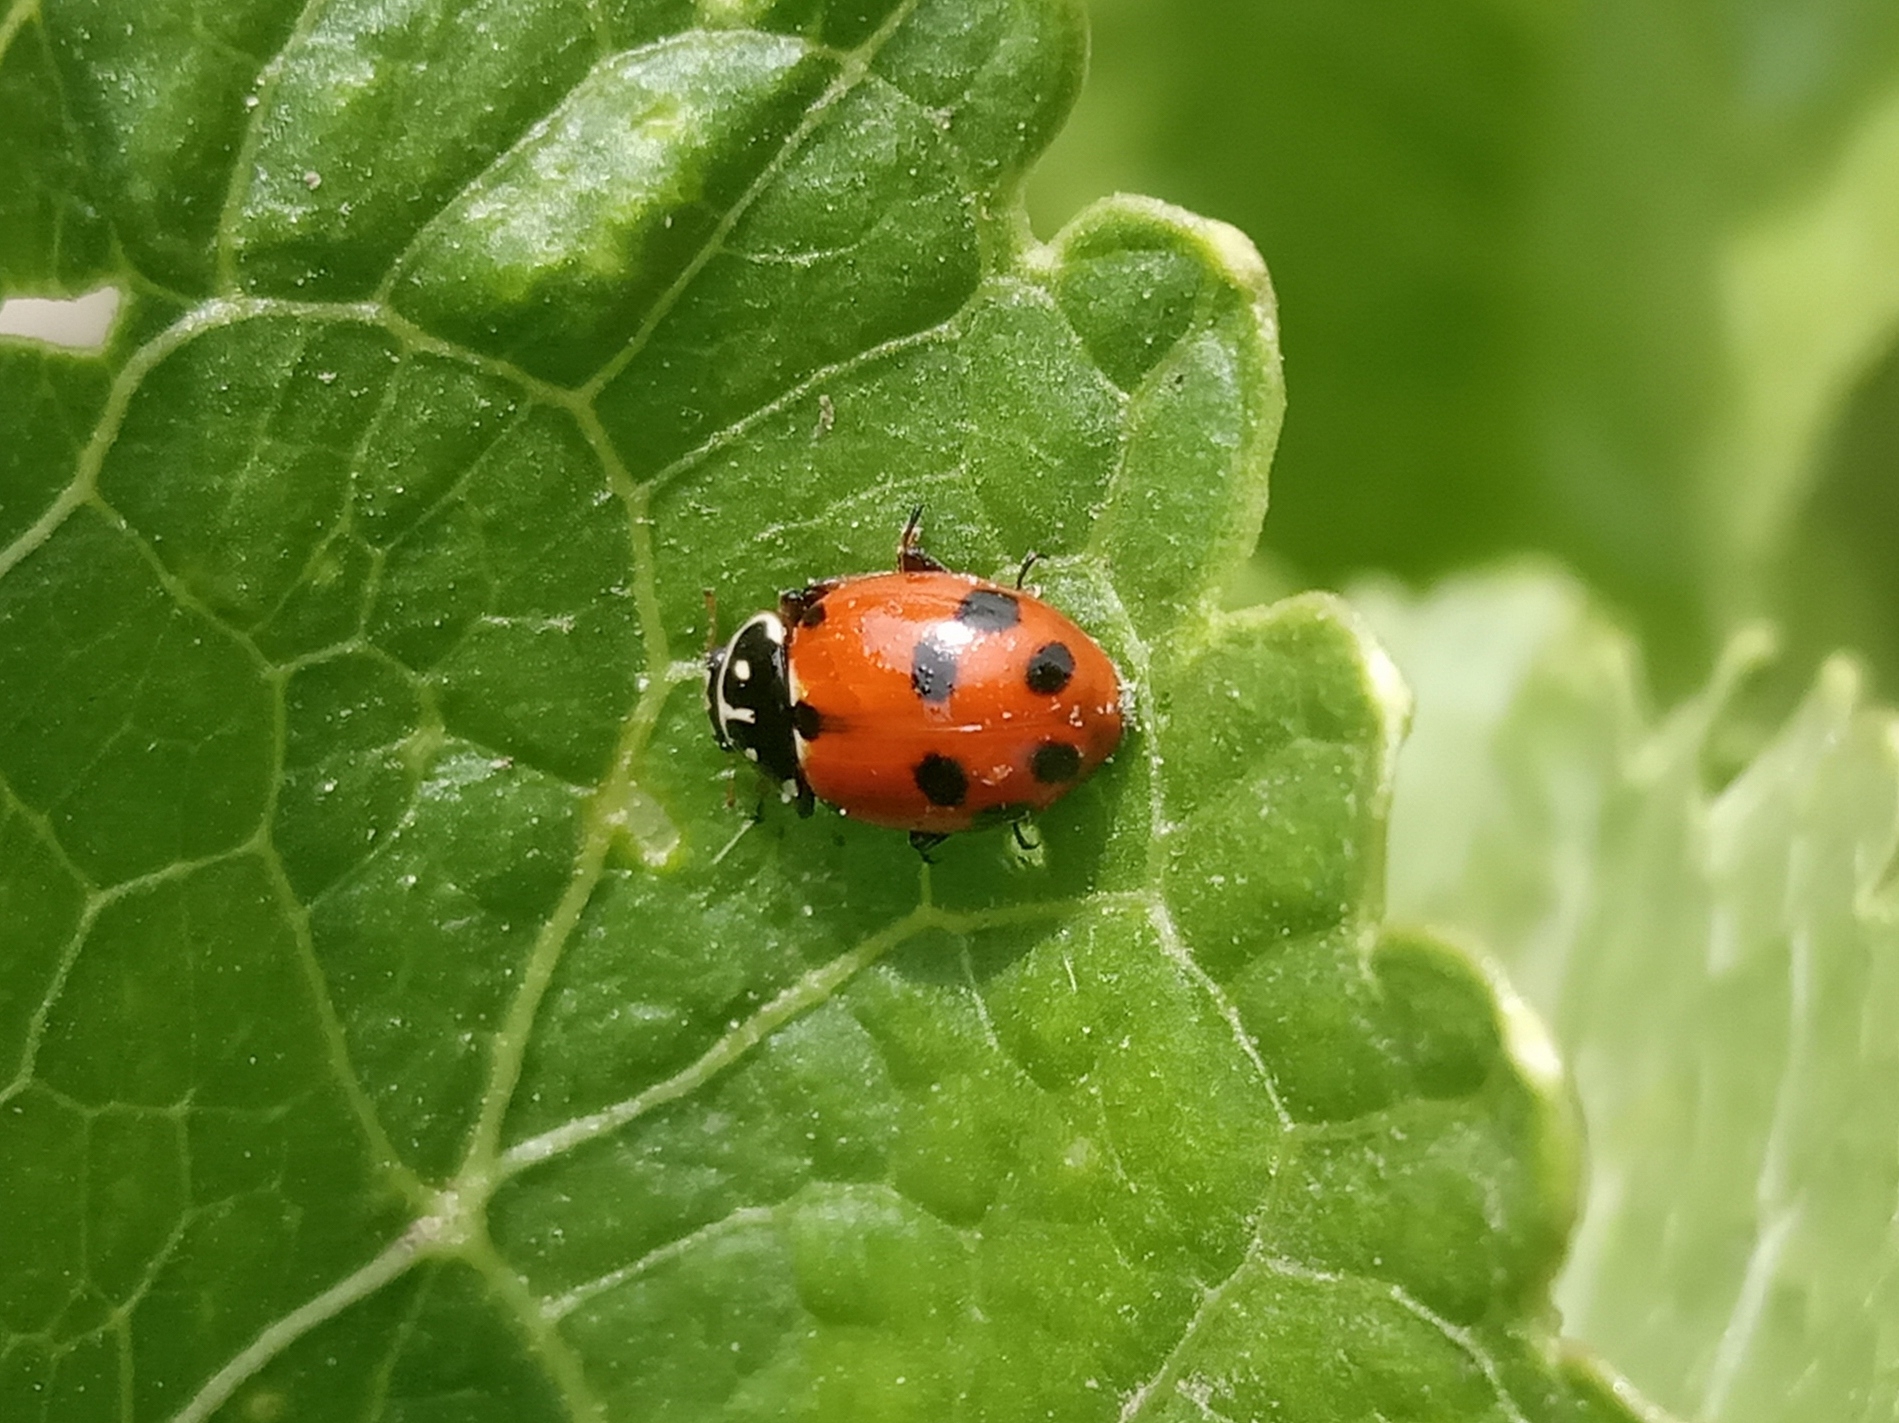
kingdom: Animalia
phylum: Arthropoda
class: Insecta
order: Coleoptera
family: Coccinellidae
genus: Hippodamia
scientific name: Hippodamia variegata
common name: Ladybird beetle
